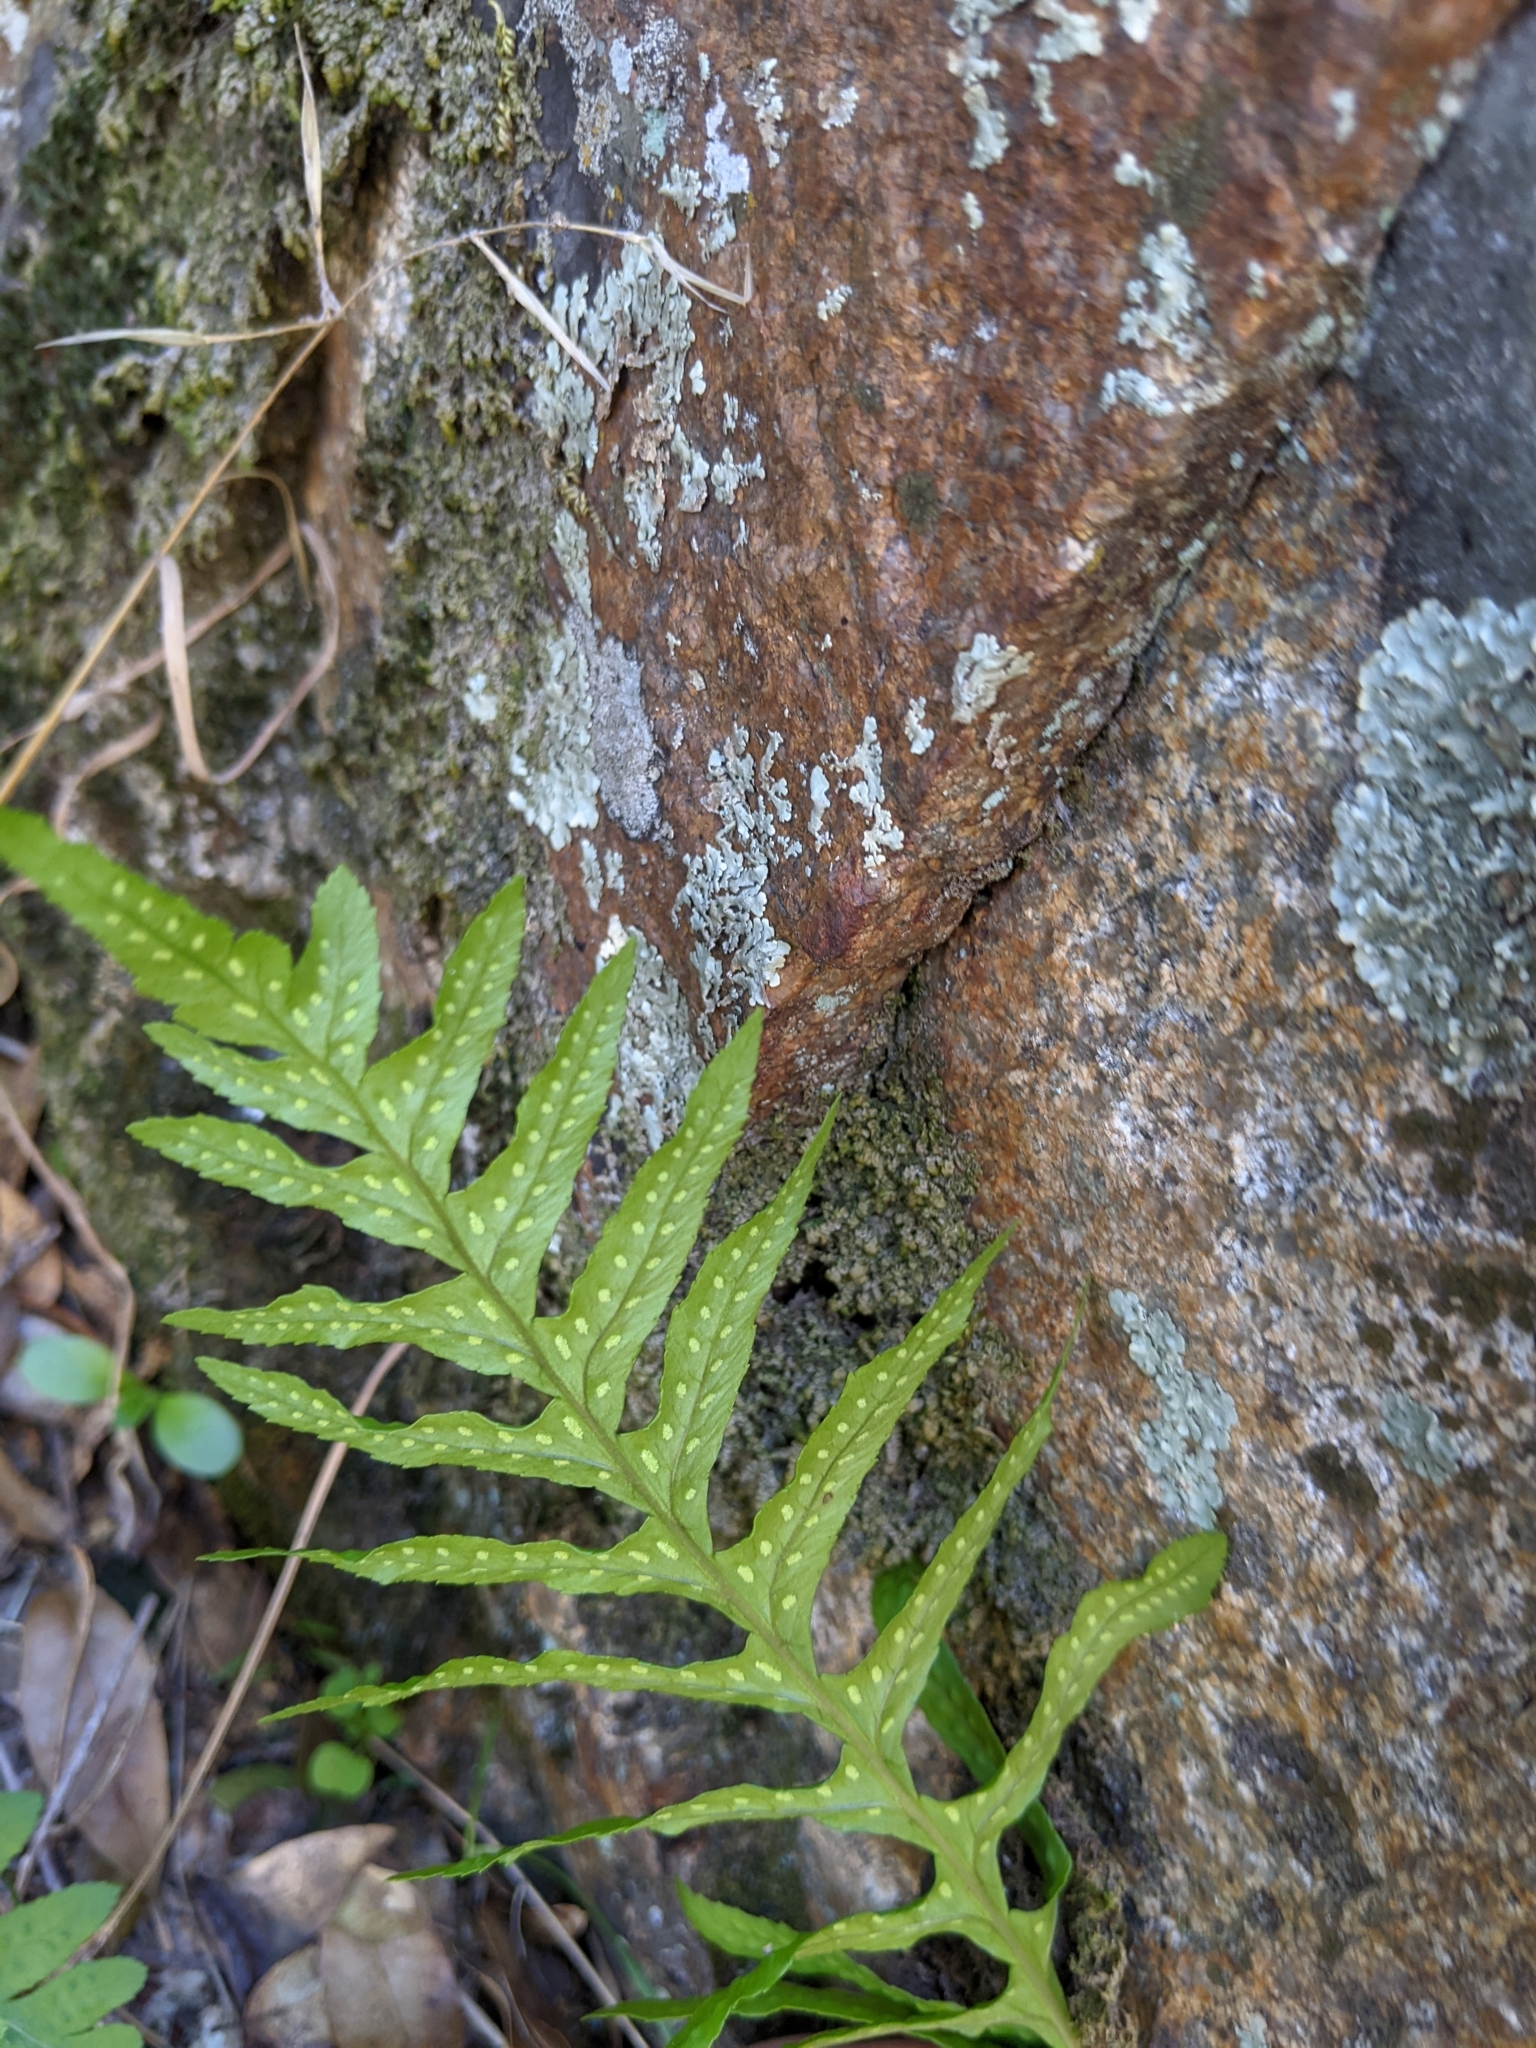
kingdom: Plantae
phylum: Tracheophyta
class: Polypodiopsida
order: Polypodiales
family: Polypodiaceae
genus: Polypodium
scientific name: Polypodium californicum
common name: California polypody
